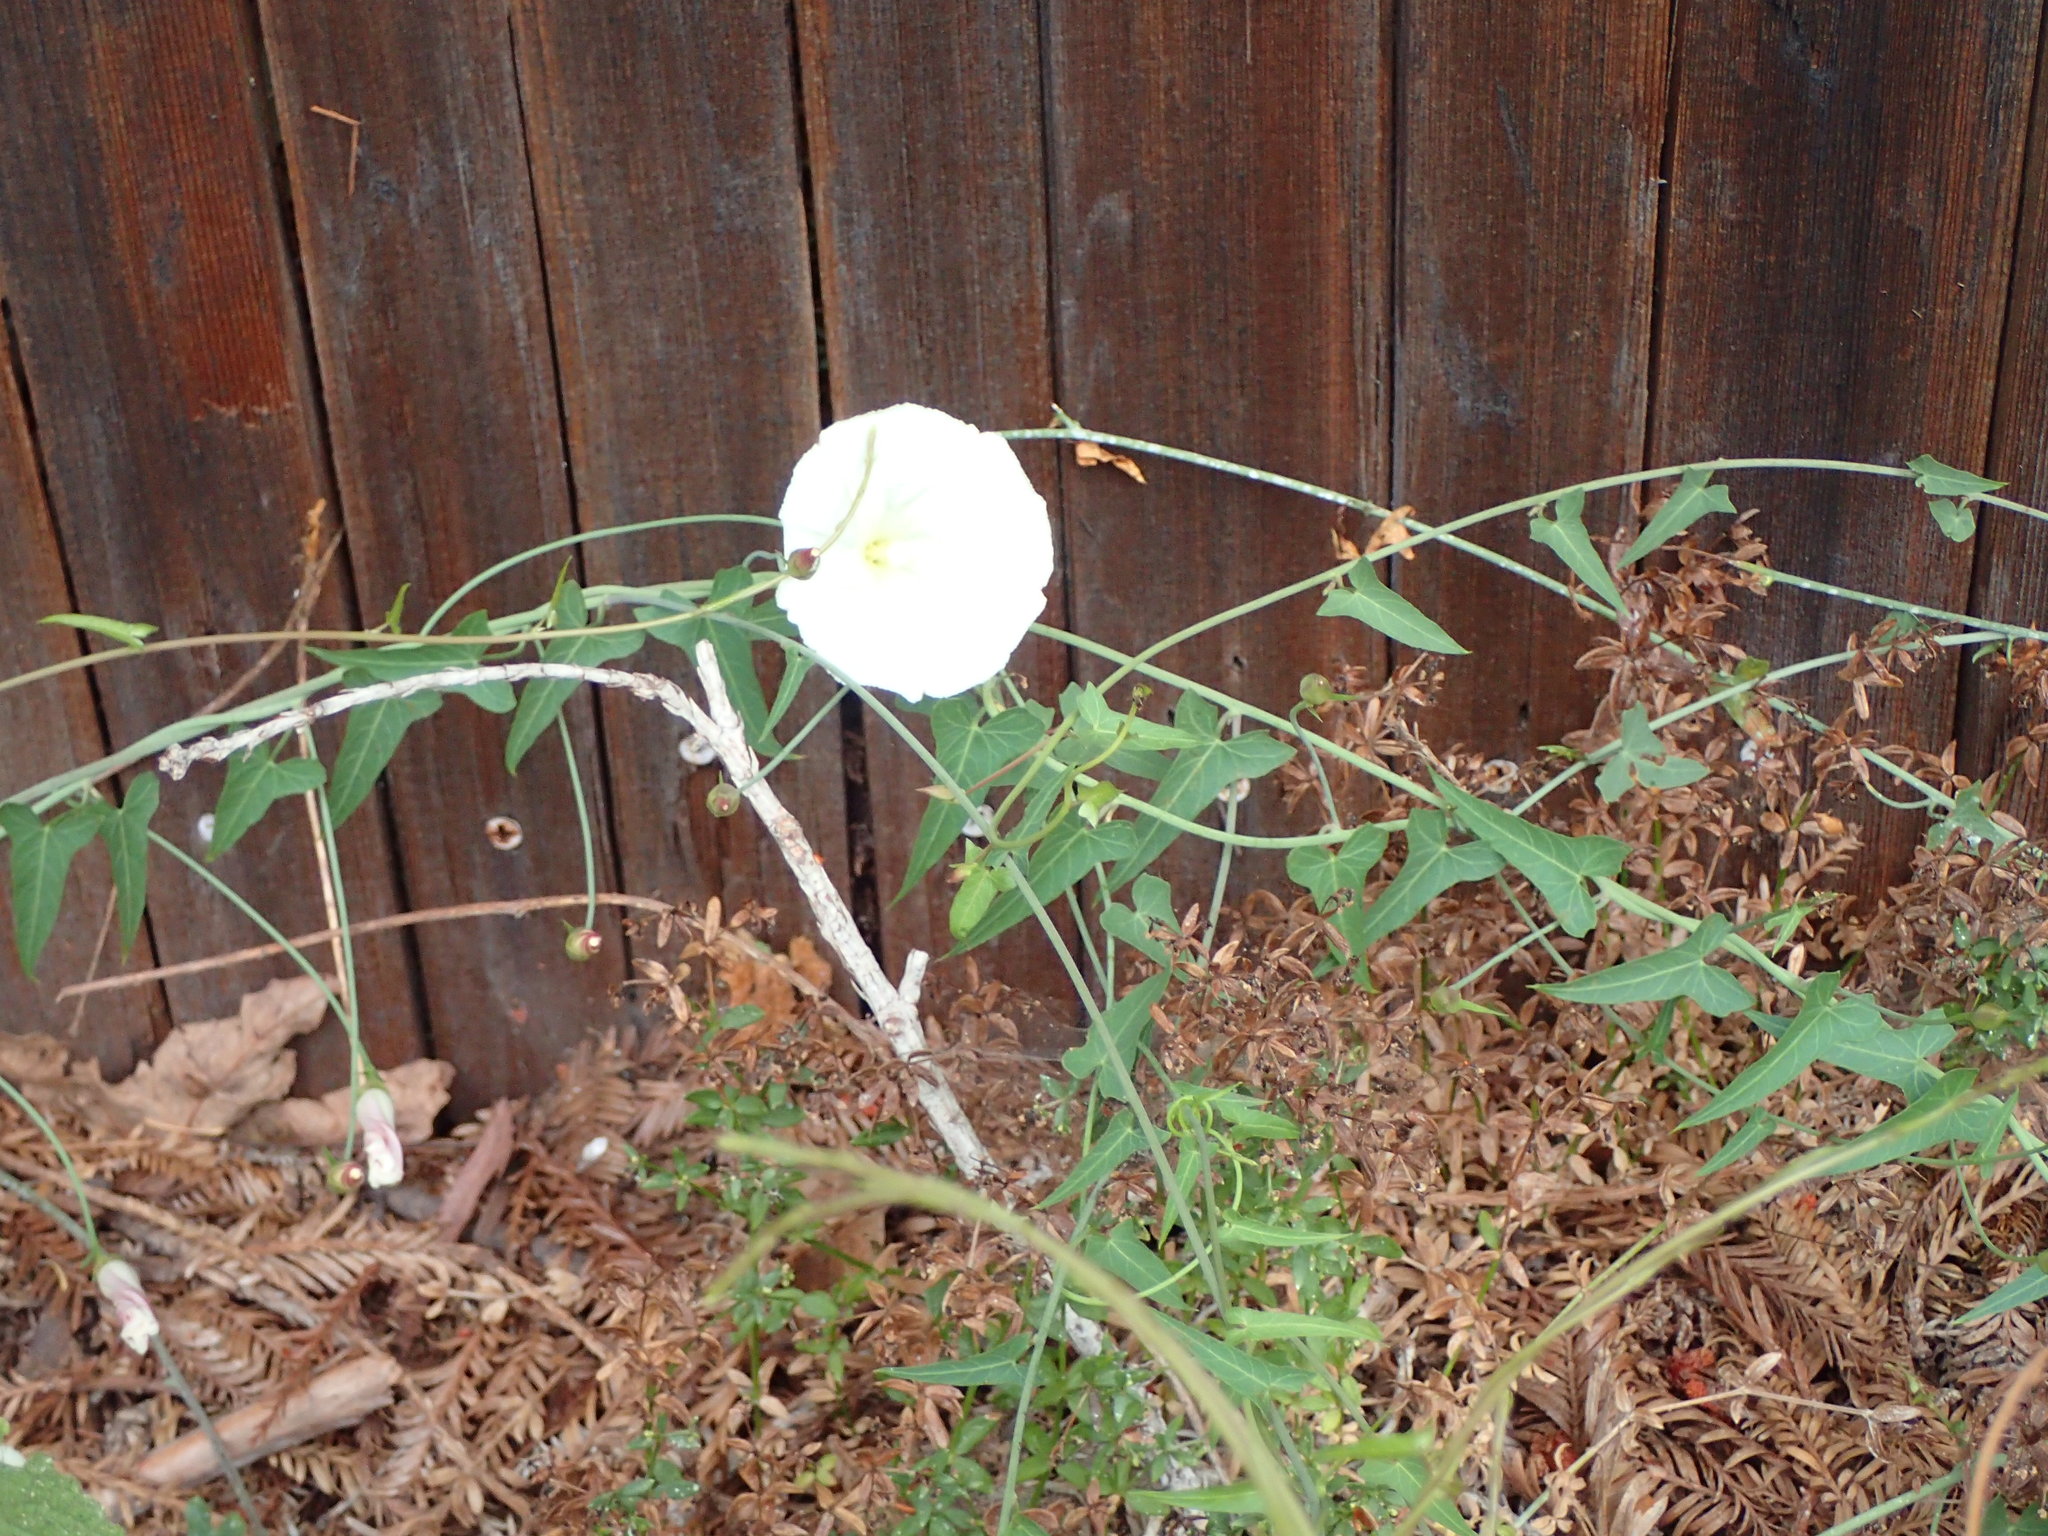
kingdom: Plantae
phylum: Tracheophyta
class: Magnoliopsida
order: Solanales
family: Convolvulaceae
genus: Calystegia
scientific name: Calystegia purpurata
